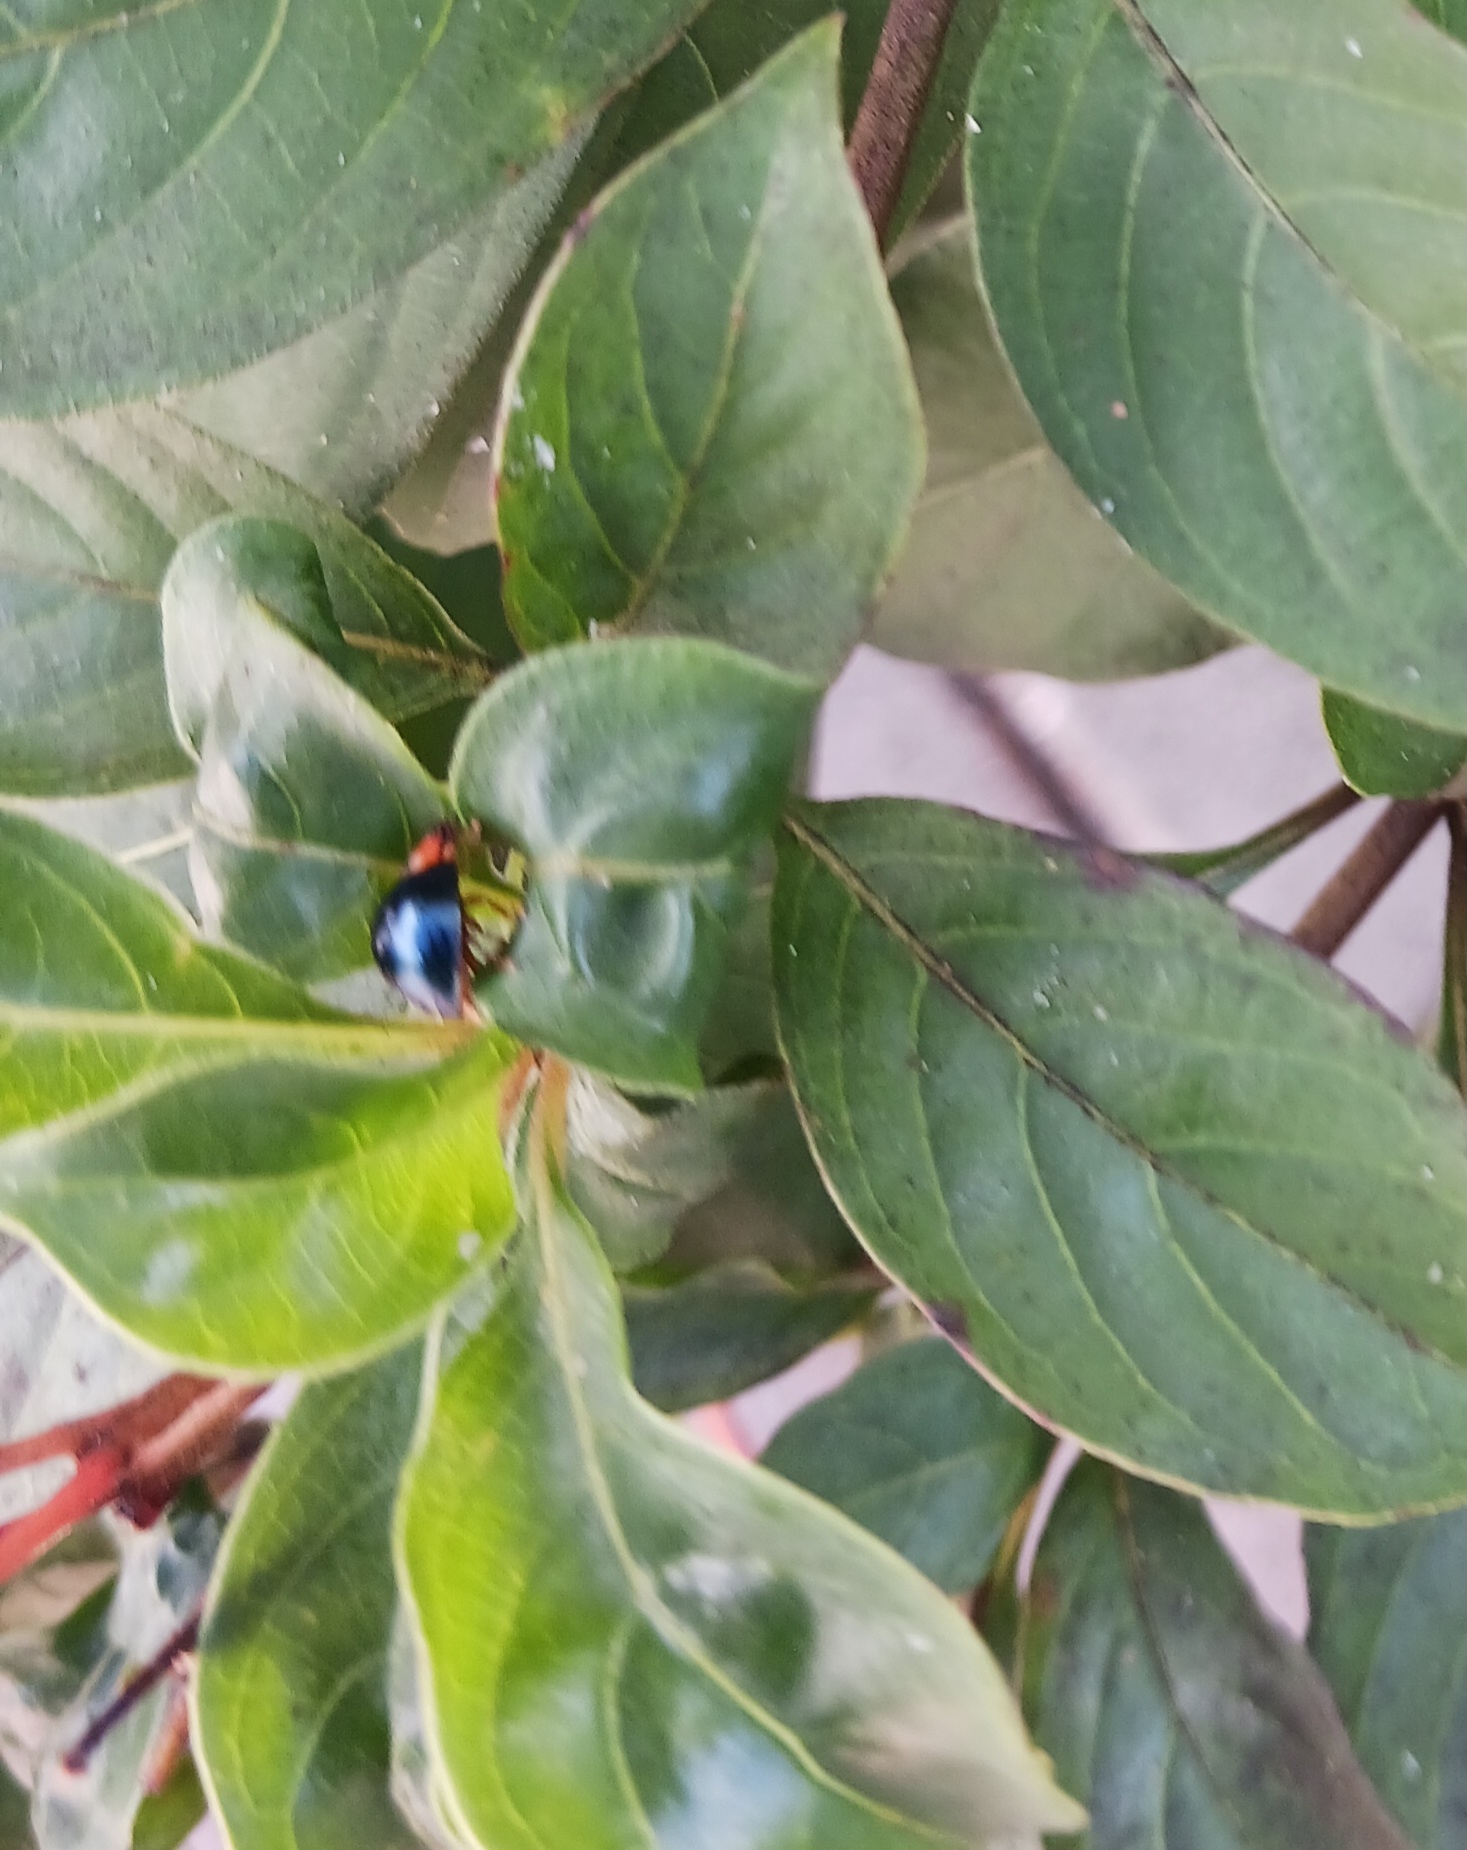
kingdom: Animalia
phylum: Arthropoda
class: Insecta
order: Coleoptera
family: Coccinellidae
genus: Curinus
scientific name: Curinus coeruleus
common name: Ladybird beetle
